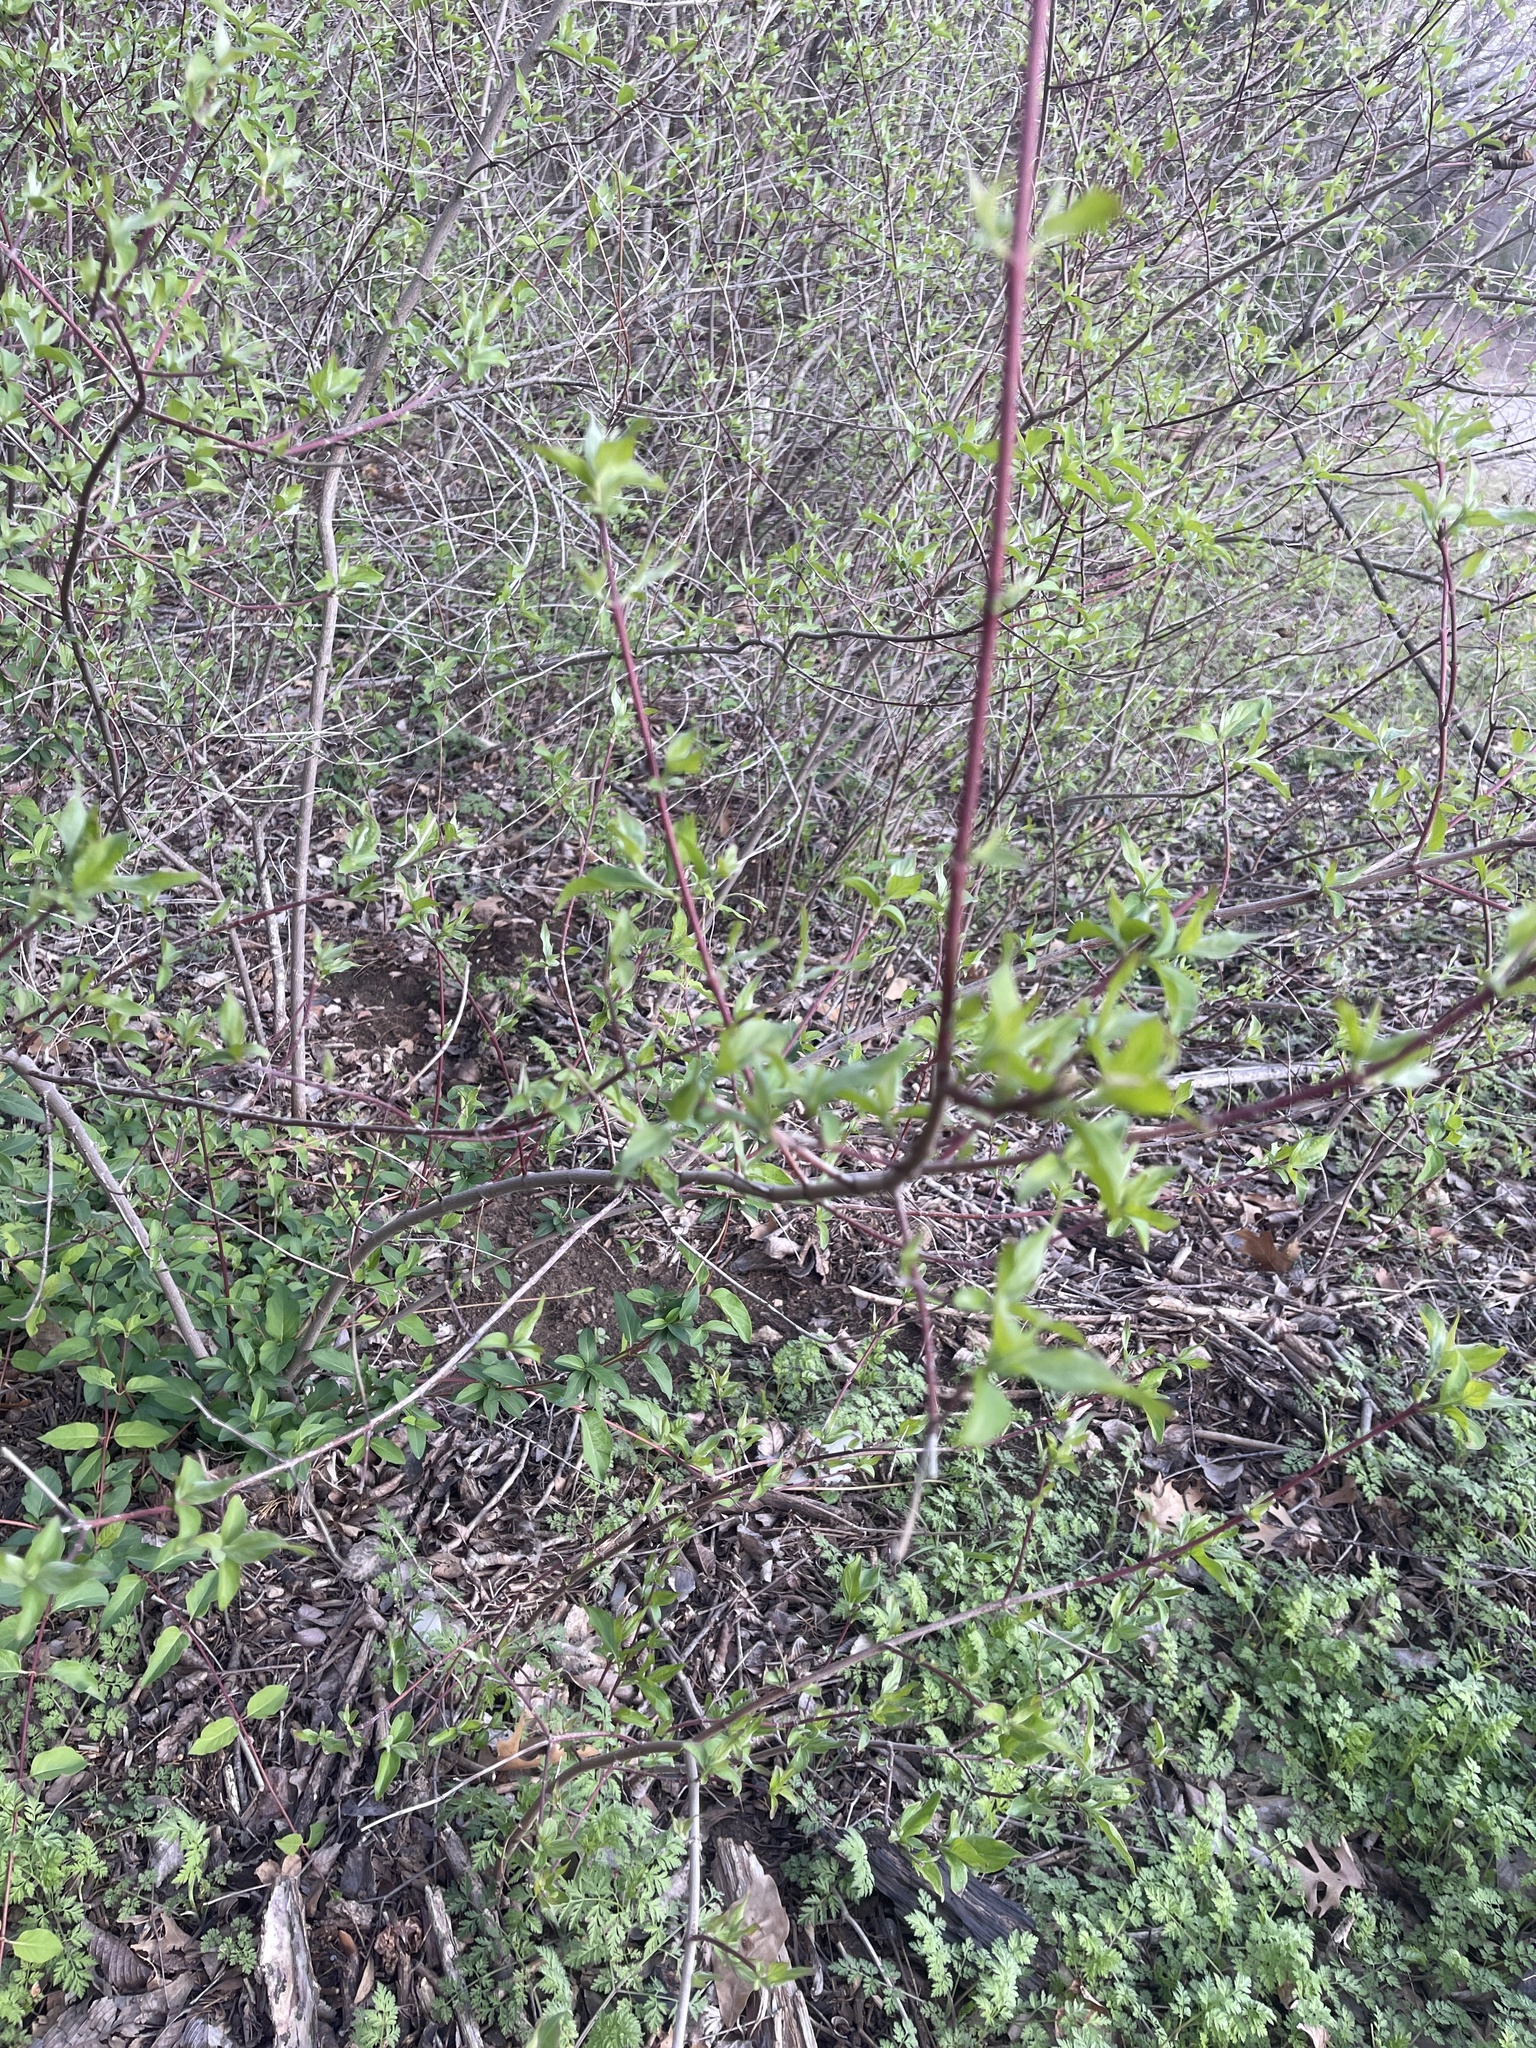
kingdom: Plantae
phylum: Tracheophyta
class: Magnoliopsida
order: Cornales
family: Cornaceae
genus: Cornus
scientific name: Cornus drummondii
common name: Rough-leaf dogwood
